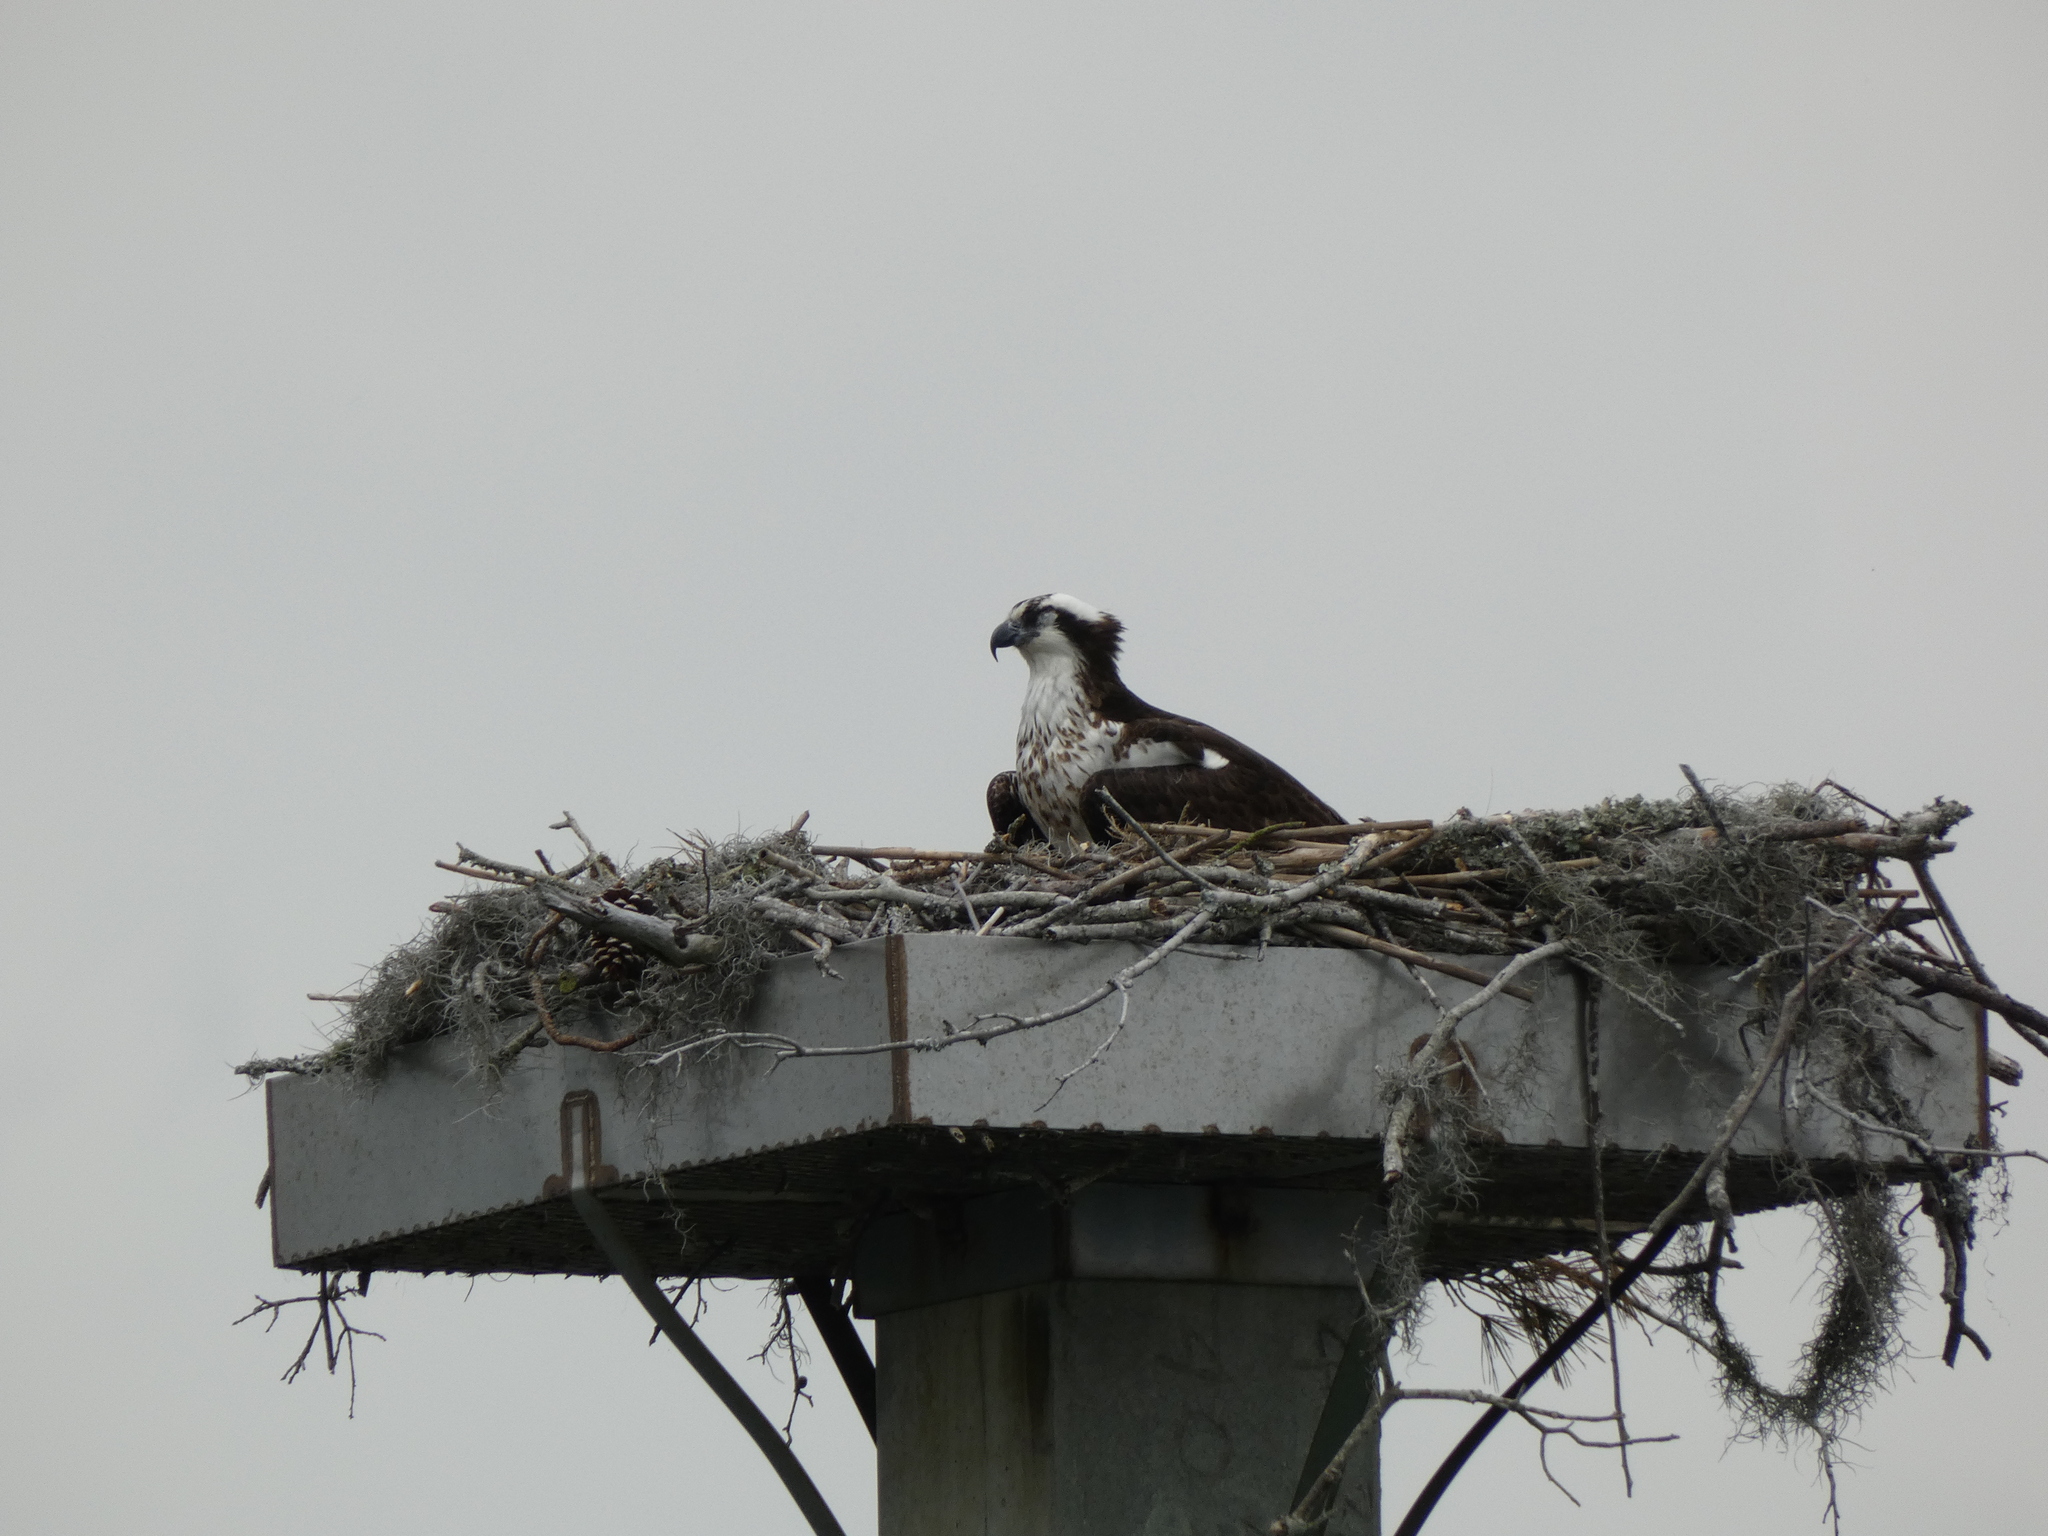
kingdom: Animalia
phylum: Chordata
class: Aves
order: Accipitriformes
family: Pandionidae
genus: Pandion
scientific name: Pandion haliaetus
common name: Osprey
